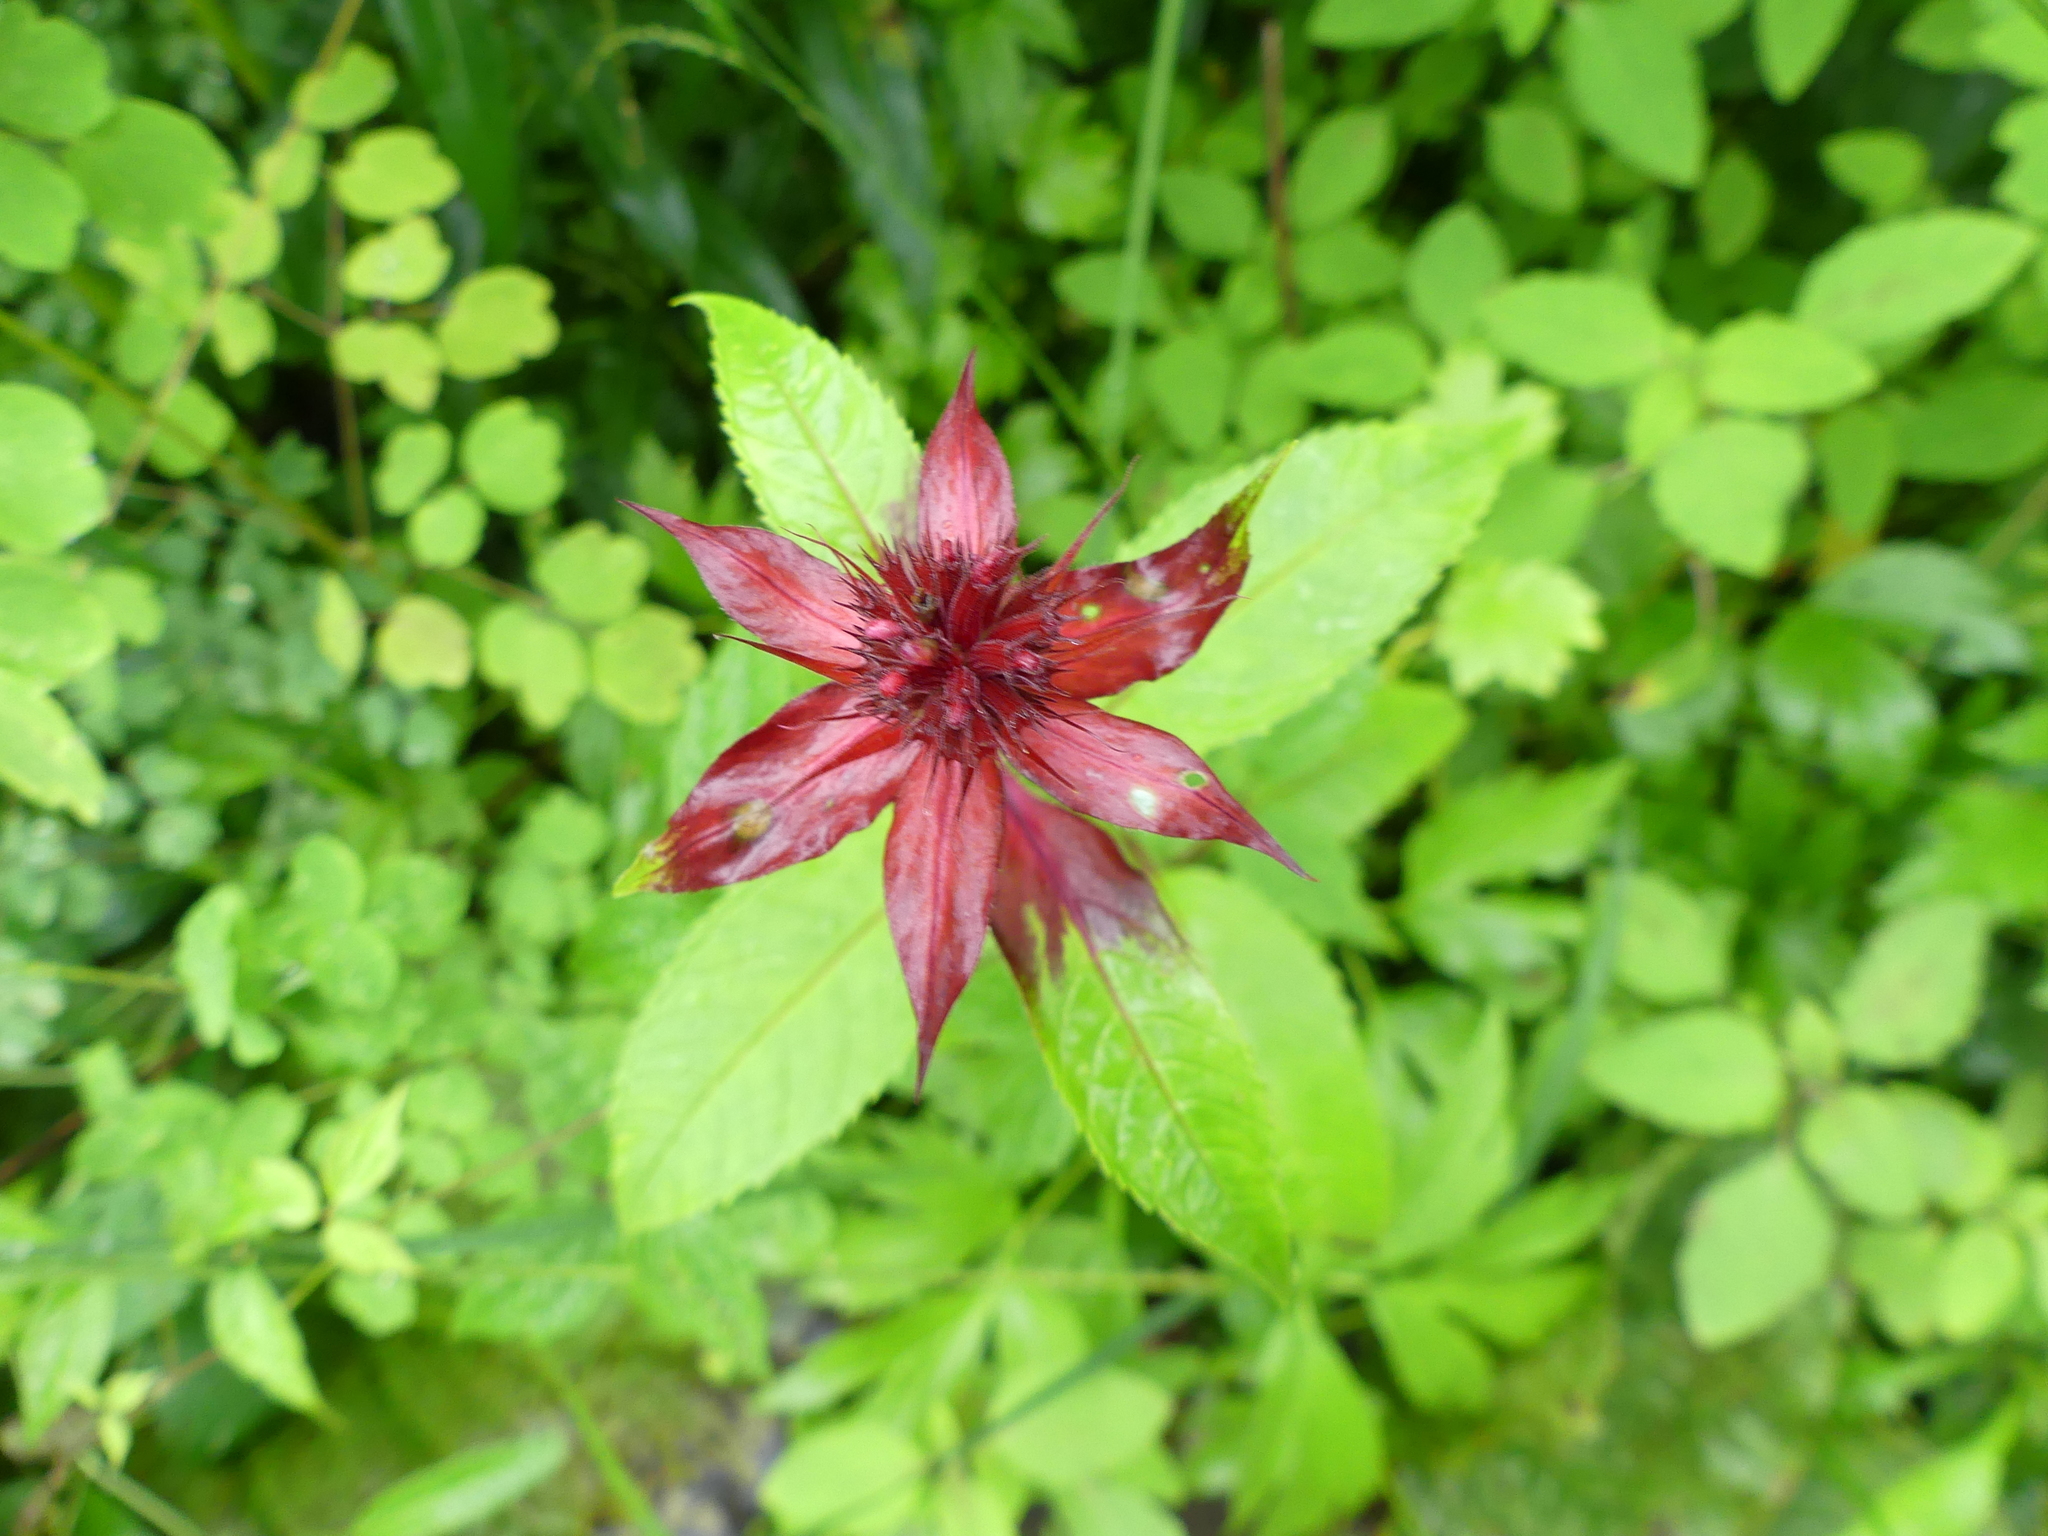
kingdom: Plantae
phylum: Tracheophyta
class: Magnoliopsida
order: Lamiales
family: Lamiaceae
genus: Monarda
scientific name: Monarda didyma
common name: Beebalm
